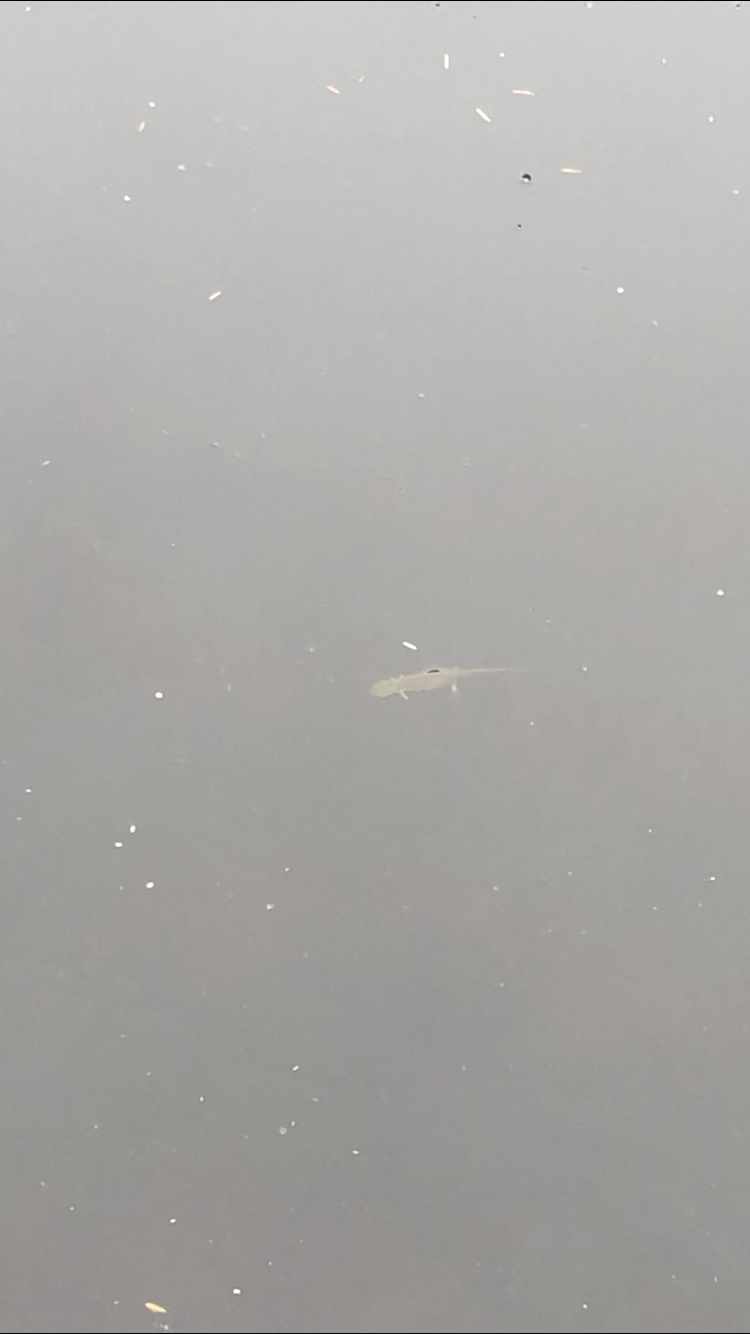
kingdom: Animalia
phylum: Chordata
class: Amphibia
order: Caudata
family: Salamandridae
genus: Notophthalmus
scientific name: Notophthalmus viridescens
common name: Eastern newt
